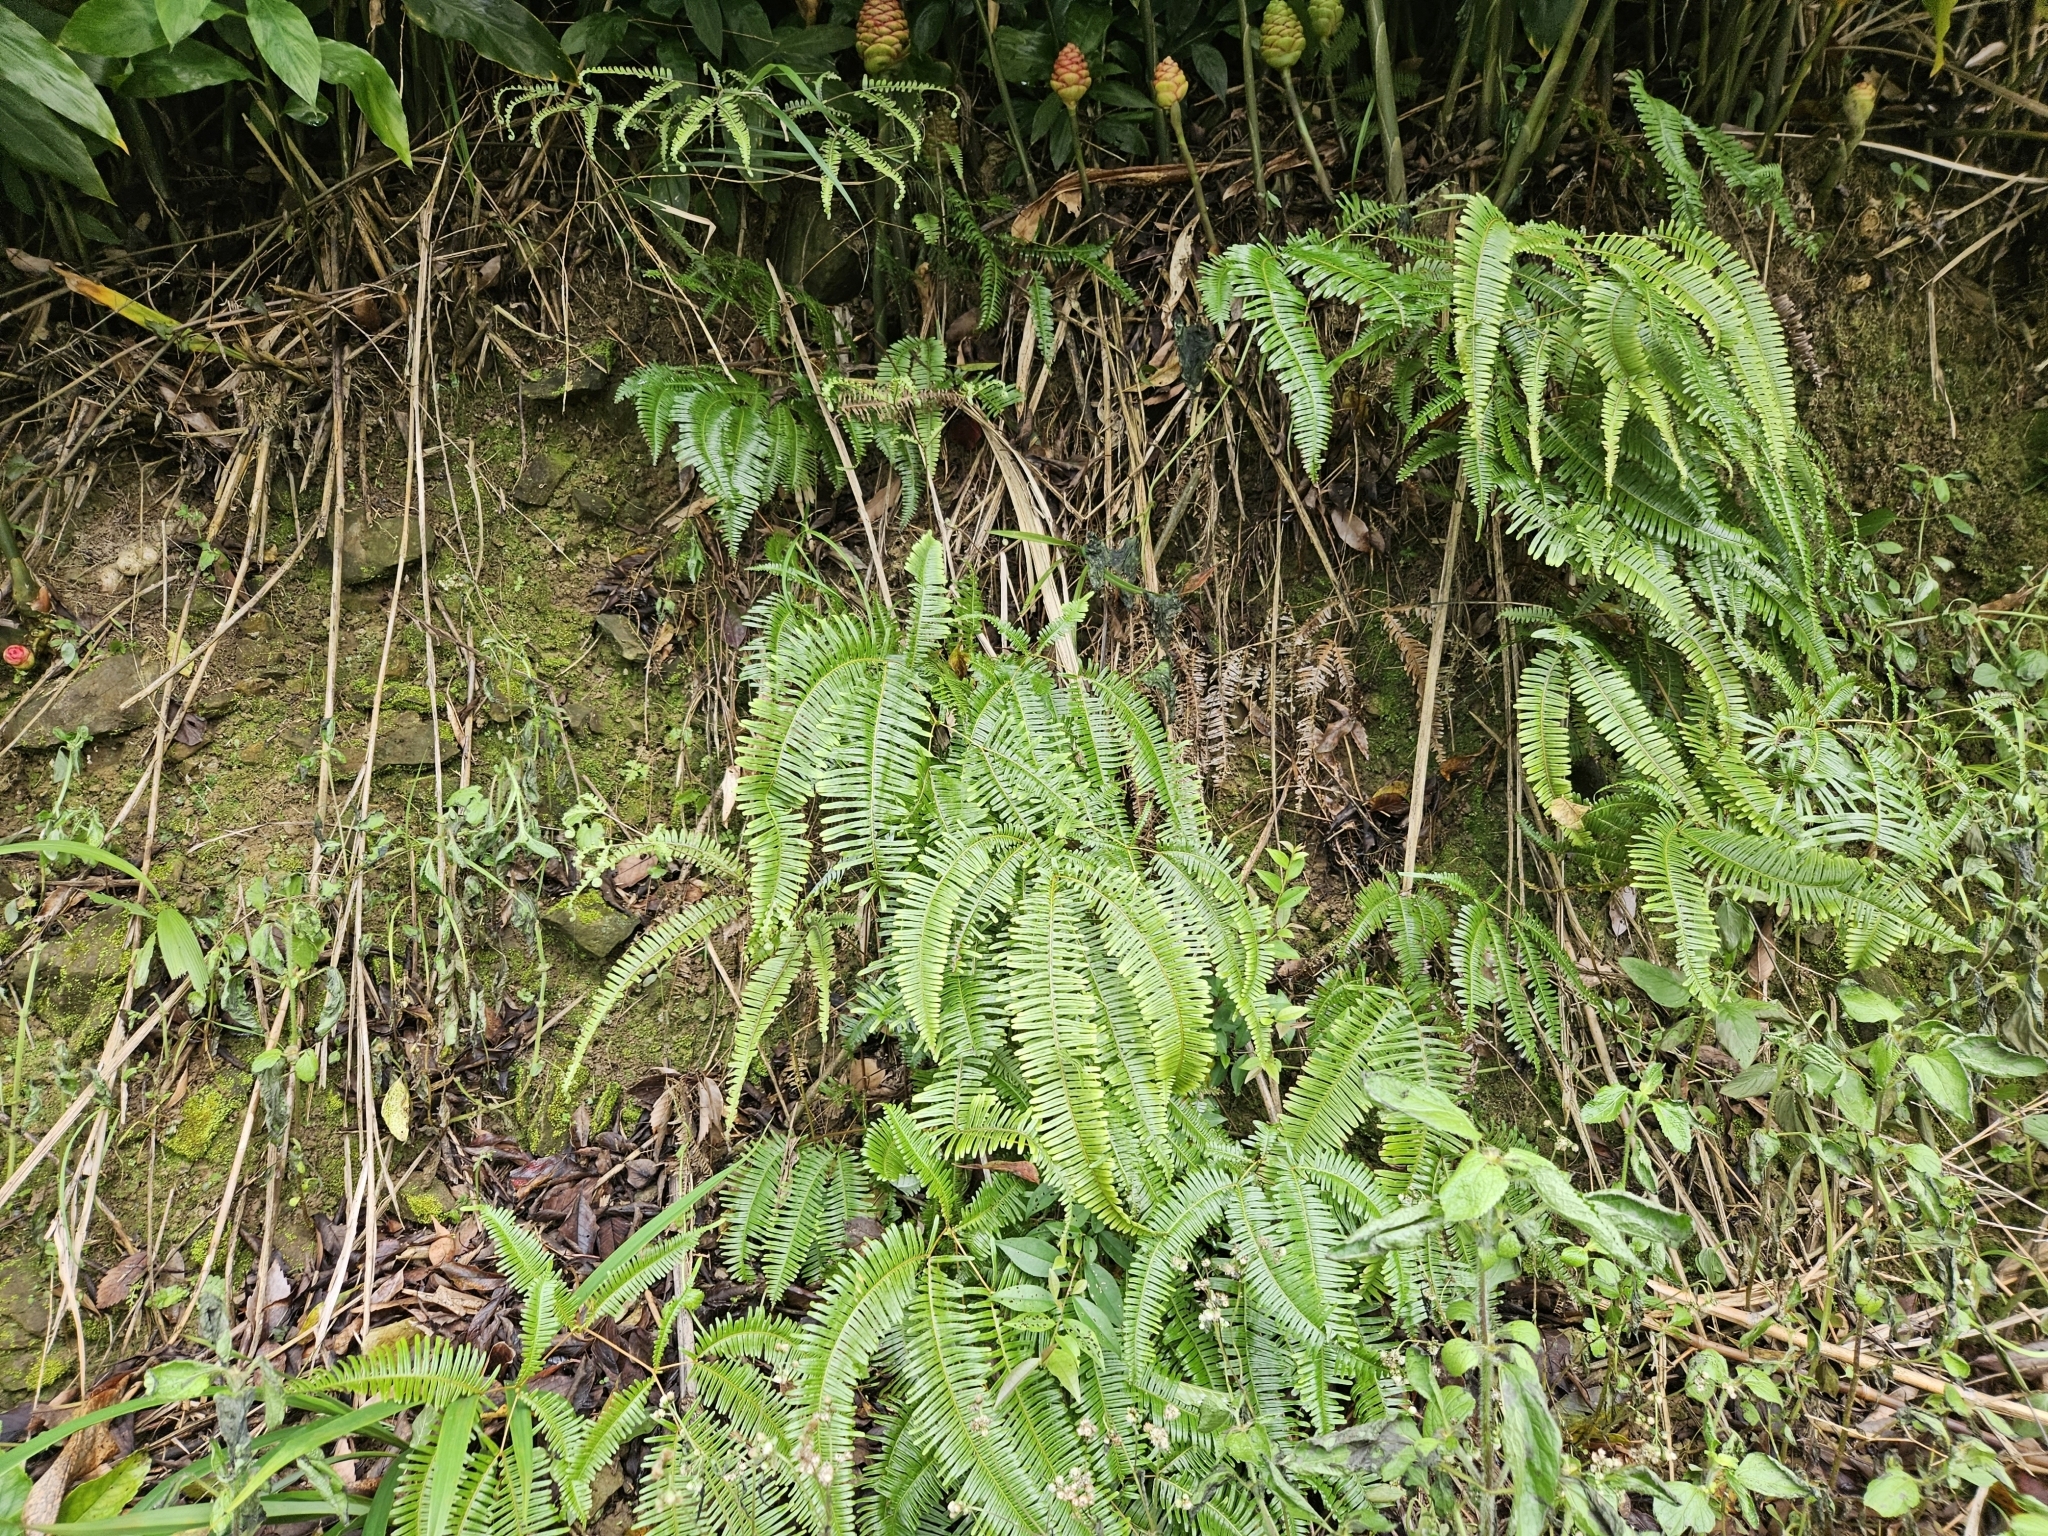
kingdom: Plantae
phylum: Tracheophyta
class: Polypodiopsida
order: Gleicheniales
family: Gleicheniaceae
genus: Dicranopteris
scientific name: Dicranopteris linearis
